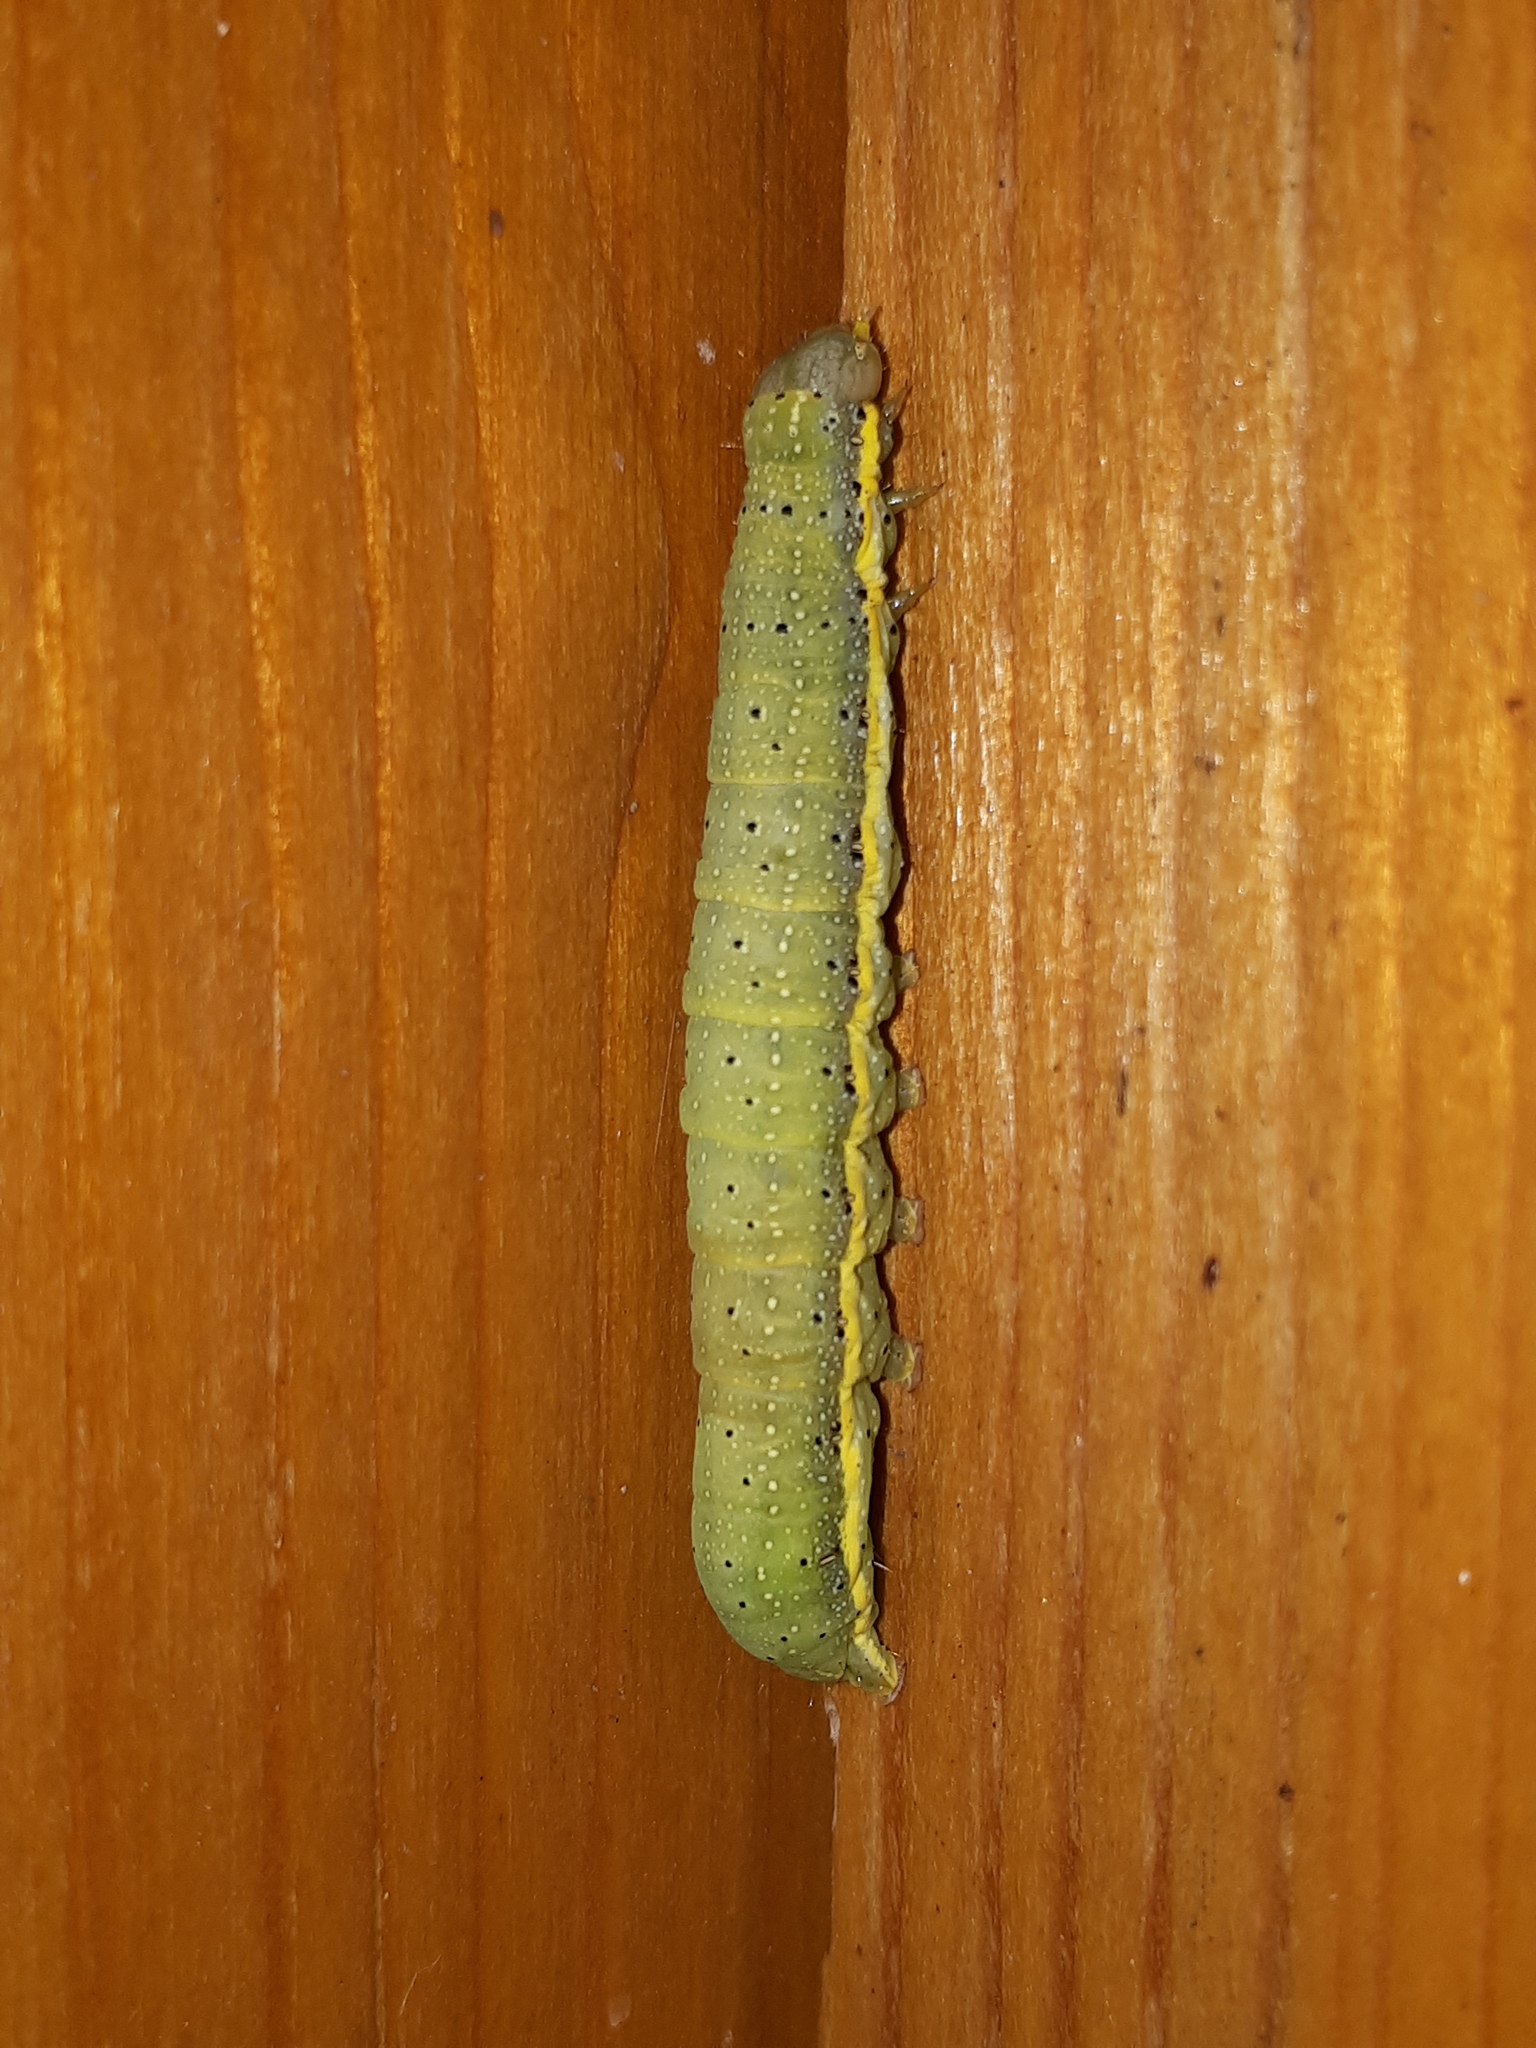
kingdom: Animalia
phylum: Arthropoda
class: Insecta
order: Lepidoptera
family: Noctuidae
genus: Lacanobia
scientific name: Lacanobia oleracea
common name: Bright-line brown-eye
